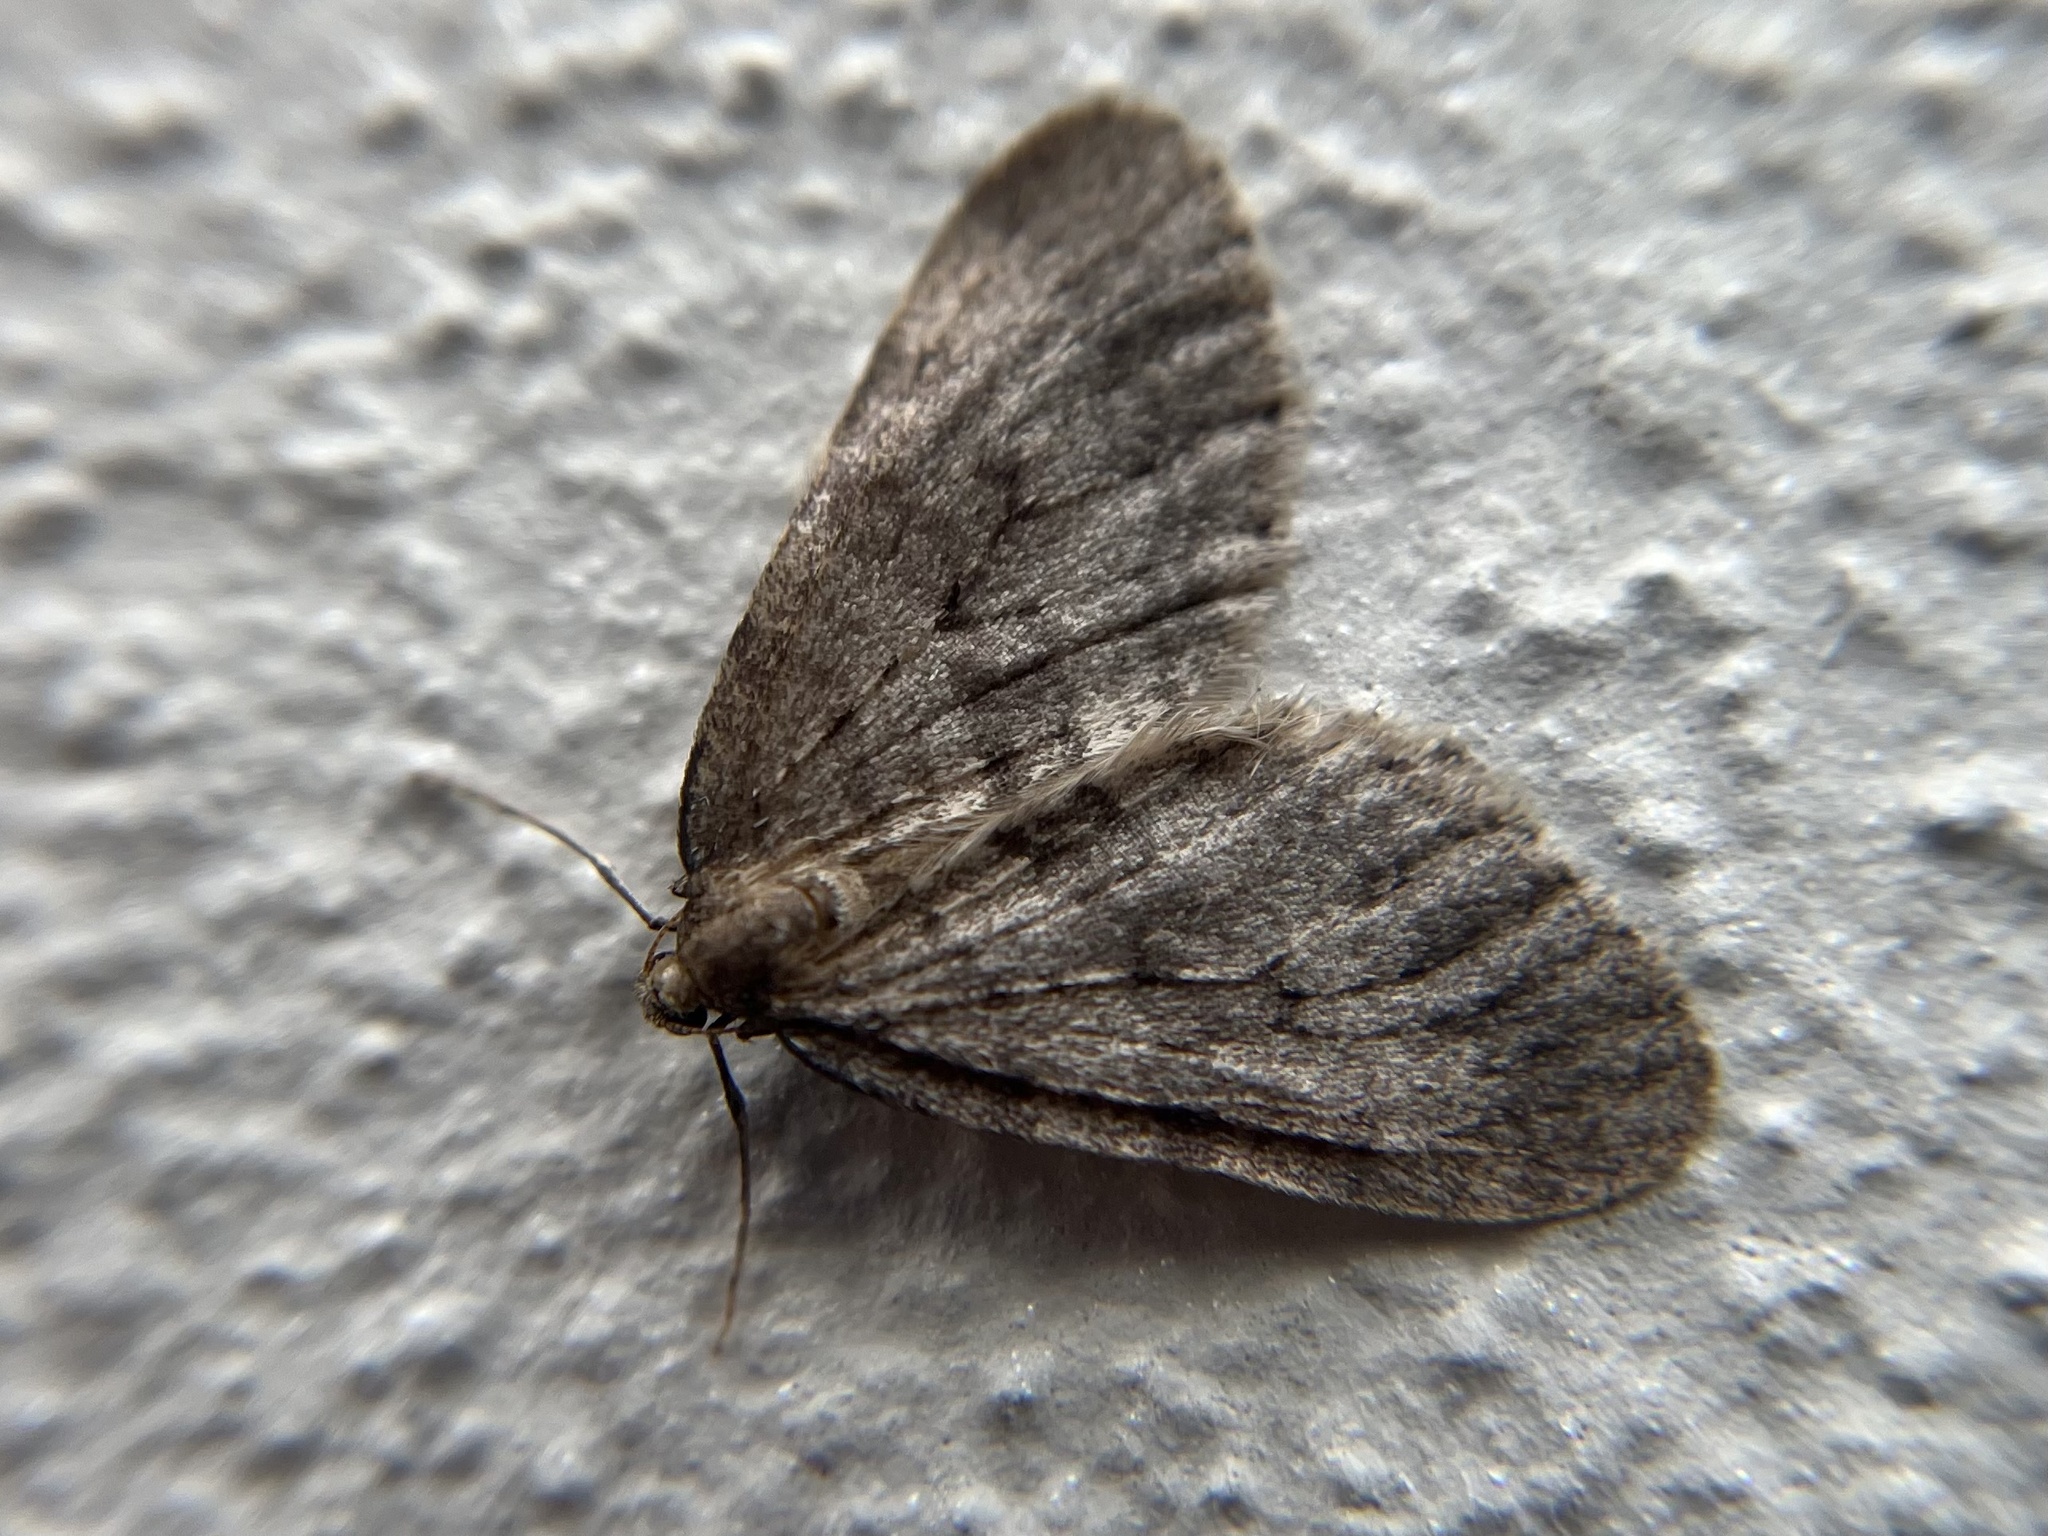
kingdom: Animalia
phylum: Arthropoda
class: Insecta
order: Lepidoptera
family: Geometridae
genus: Operophtera
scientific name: Operophtera brumata
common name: Winter moth
